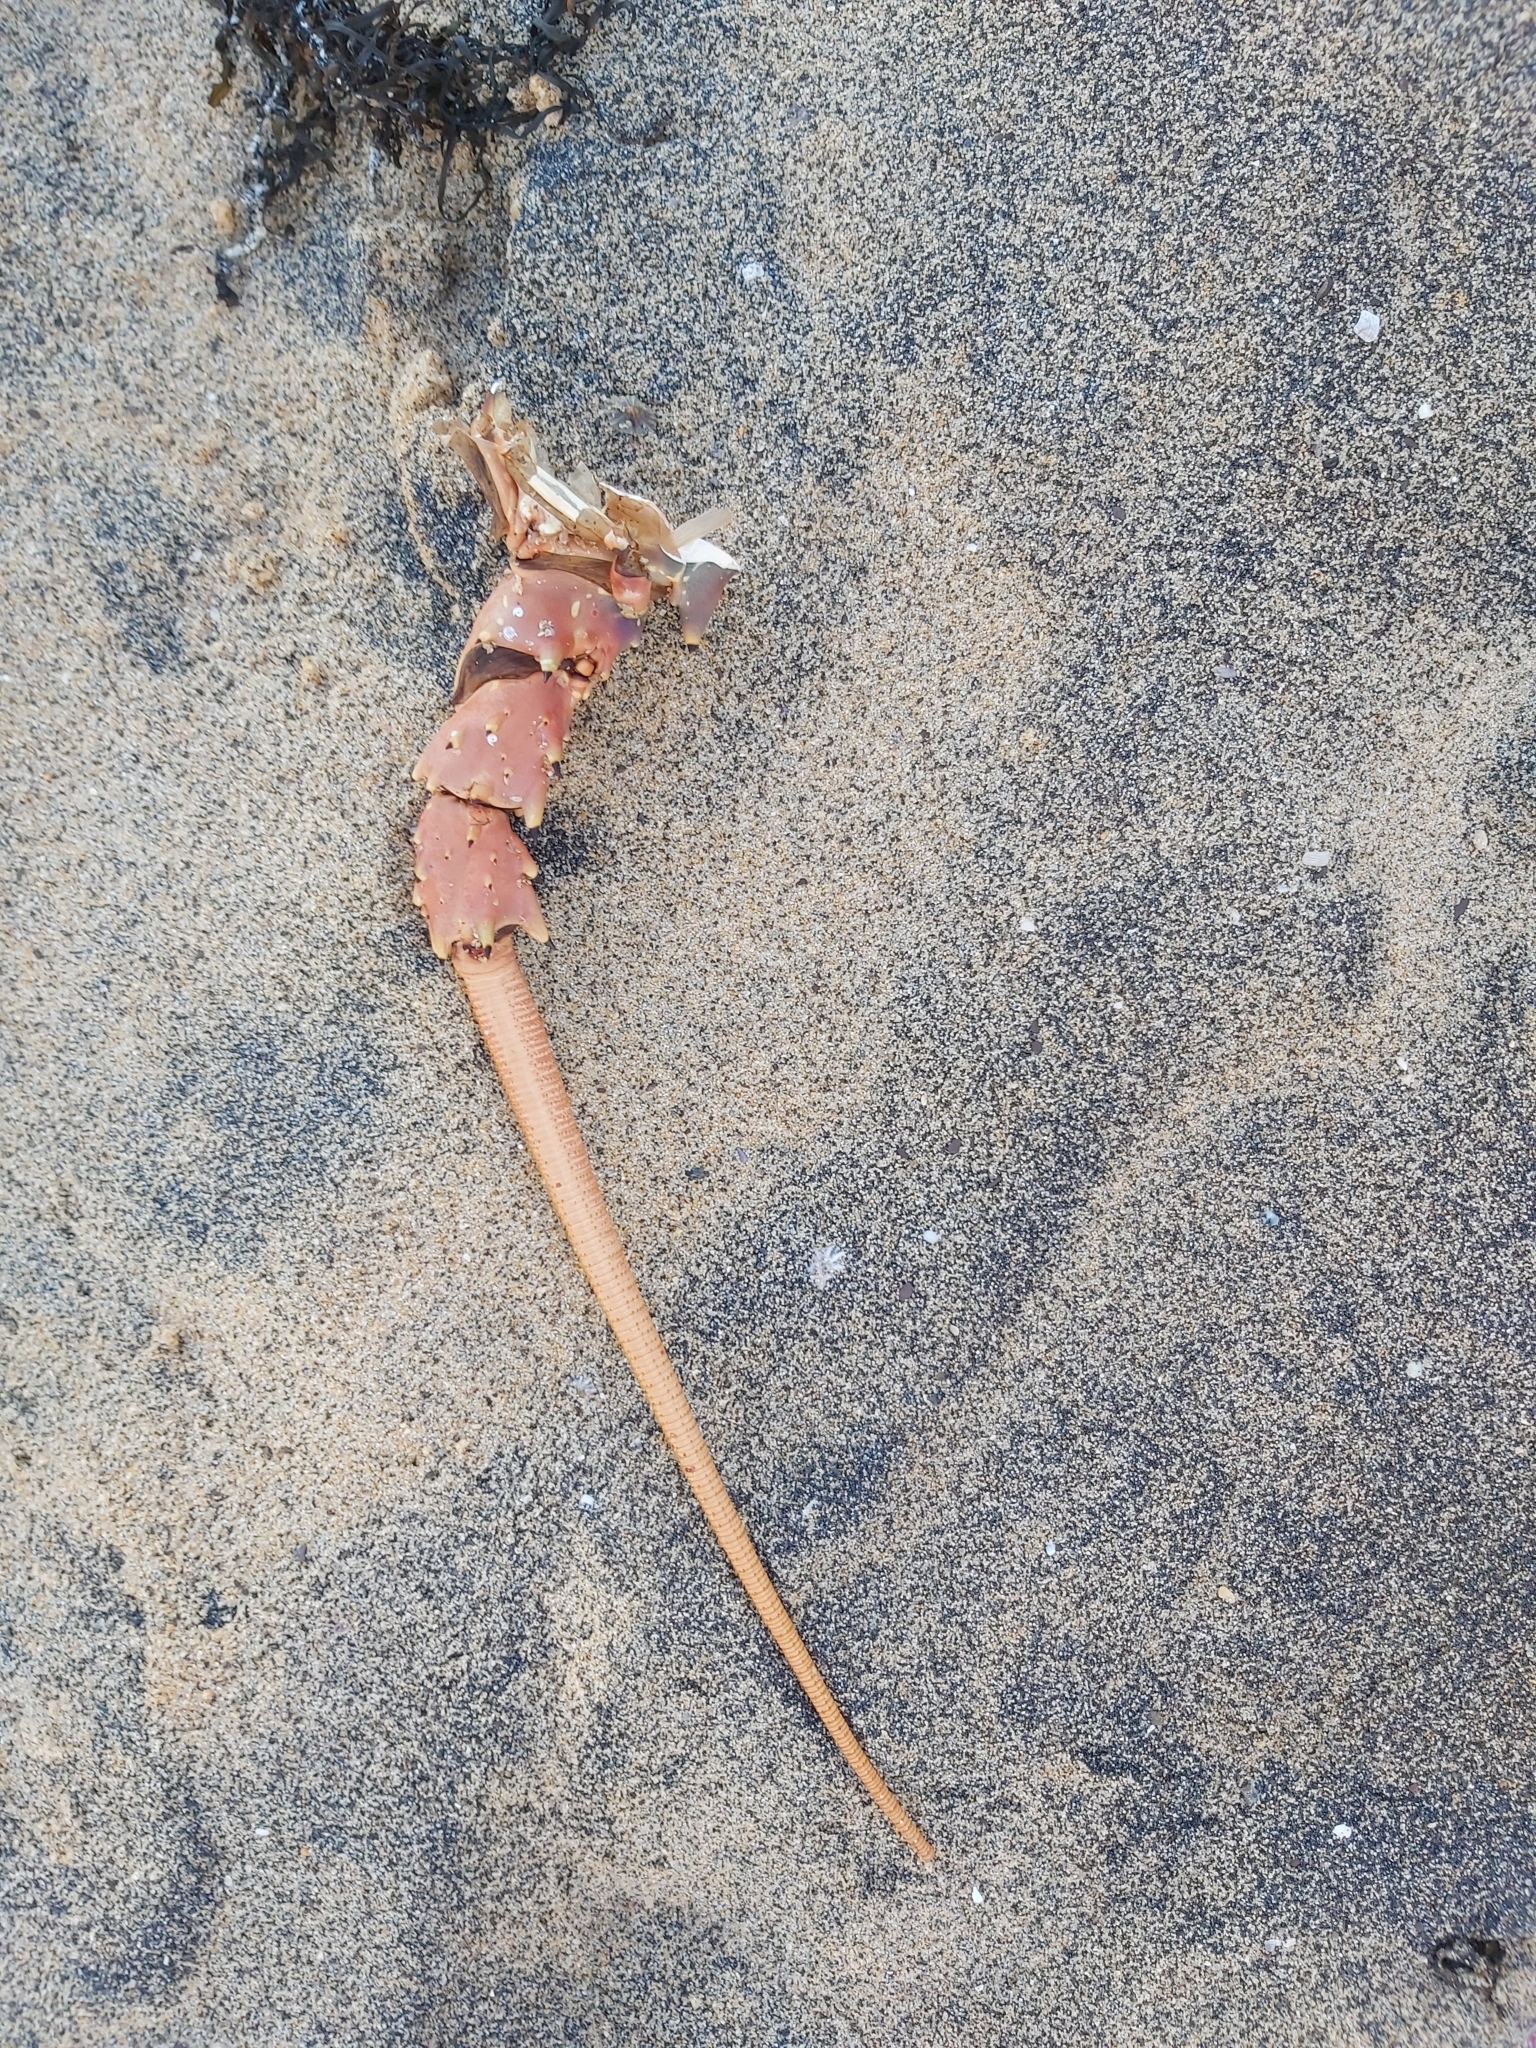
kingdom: Animalia
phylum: Arthropoda
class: Malacostraca
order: Decapoda
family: Palinuridae
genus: Sagmariasus
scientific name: Sagmariasus verreauxi
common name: Green rock lobster
